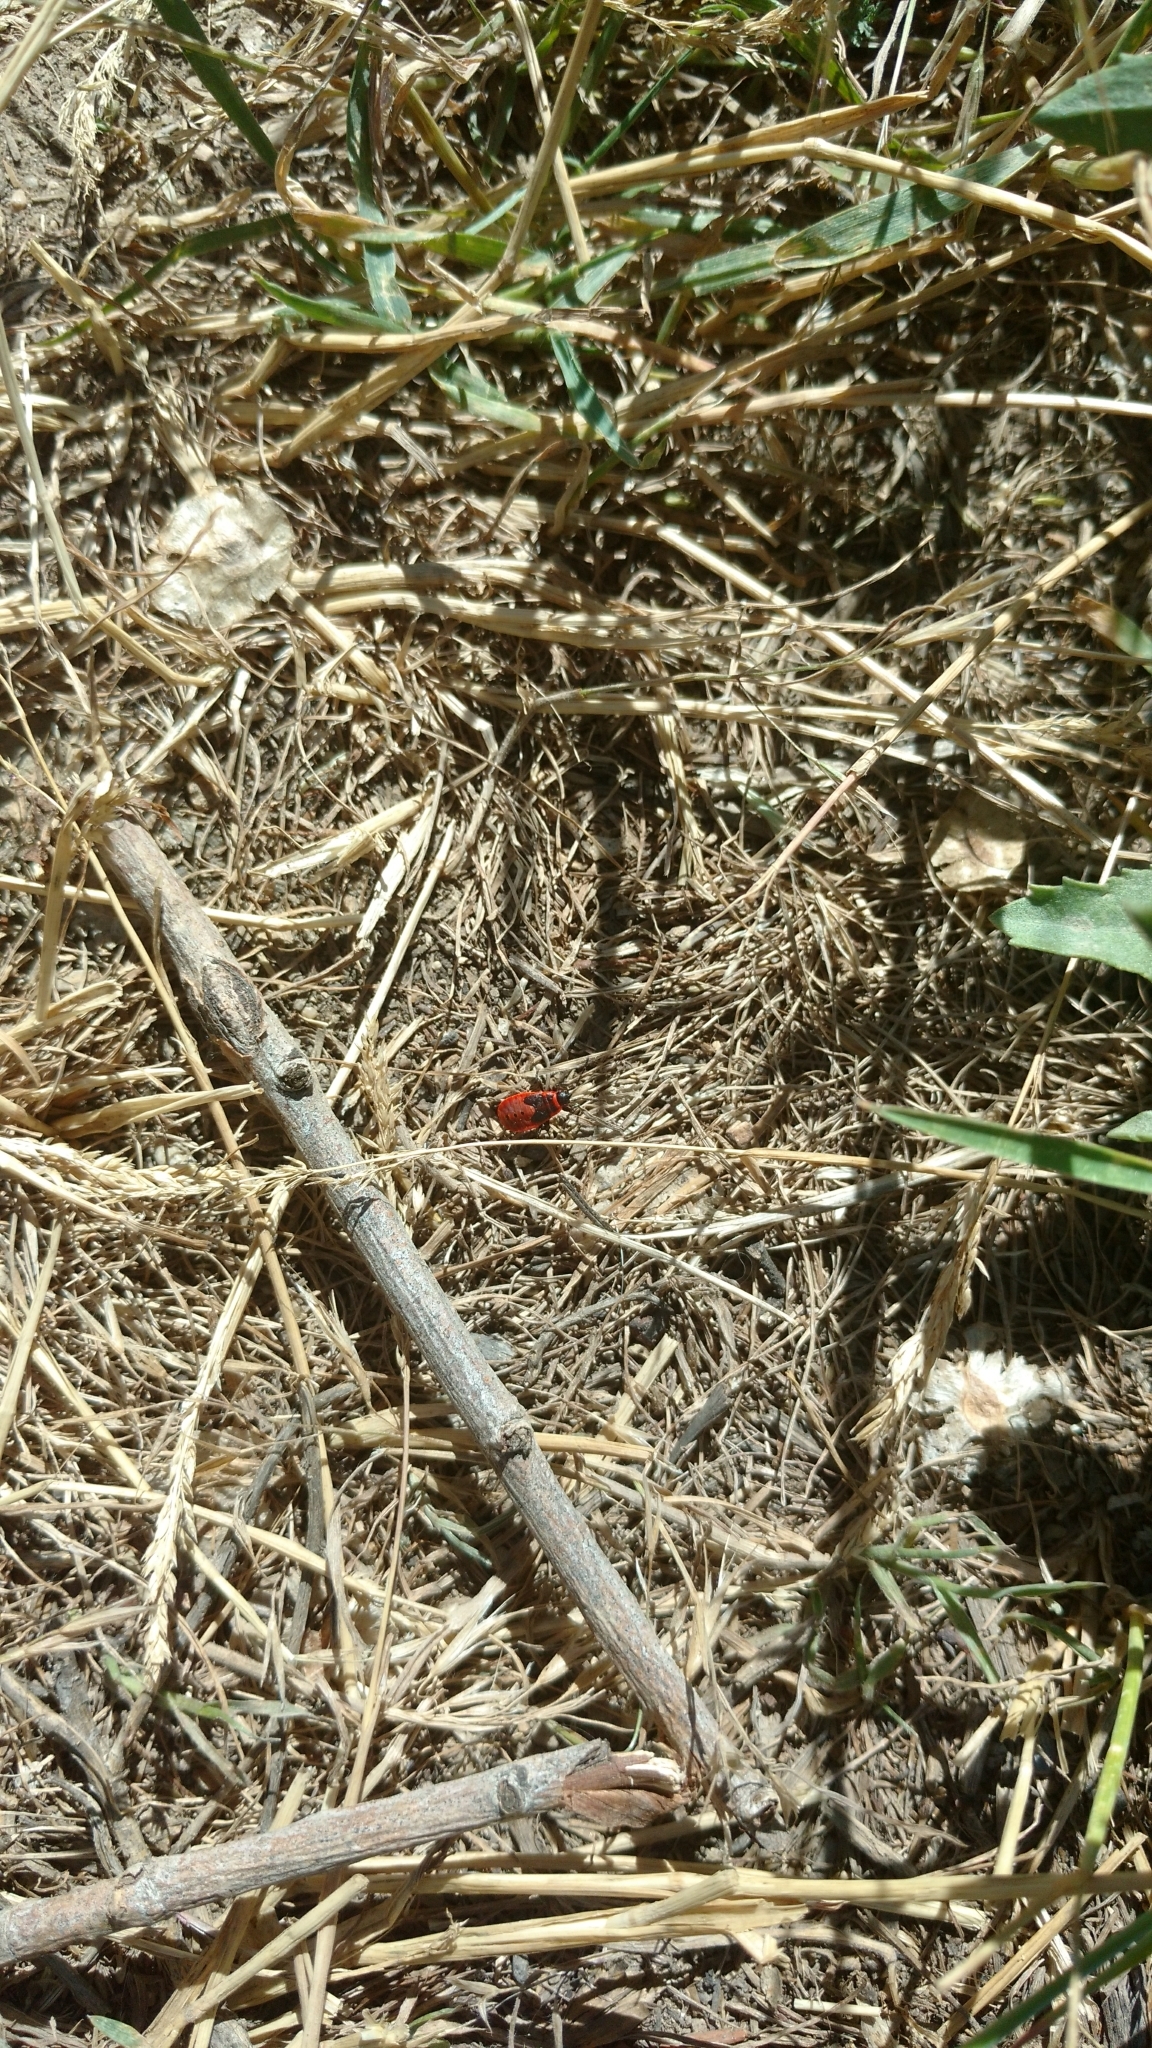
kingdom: Animalia
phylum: Arthropoda
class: Insecta
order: Hemiptera
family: Pyrrhocoridae
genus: Pyrrhocoris
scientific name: Pyrrhocoris apterus
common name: Firebug
